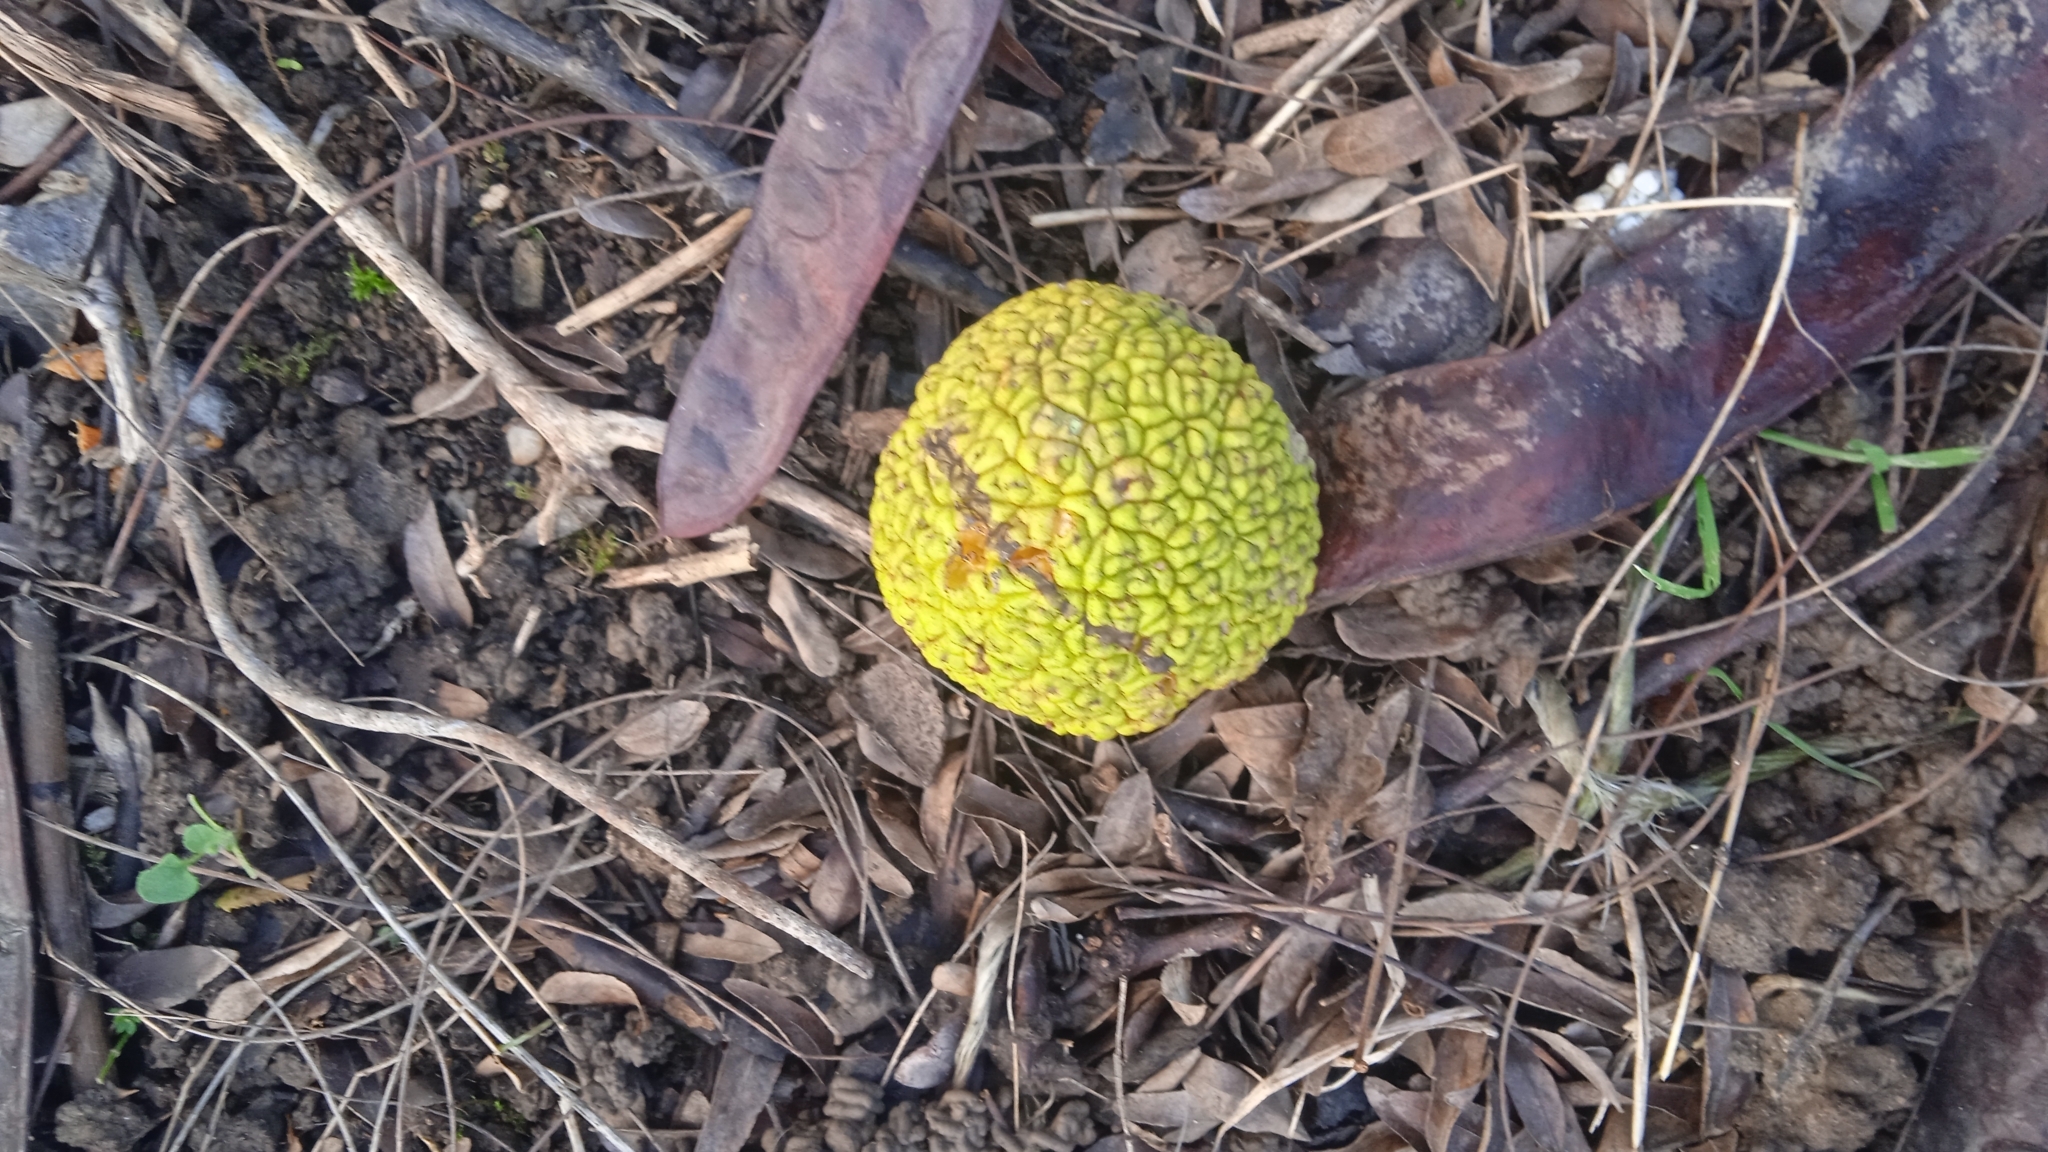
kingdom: Plantae
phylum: Tracheophyta
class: Magnoliopsida
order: Rosales
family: Moraceae
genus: Maclura
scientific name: Maclura pomifera
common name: Osage-orange
